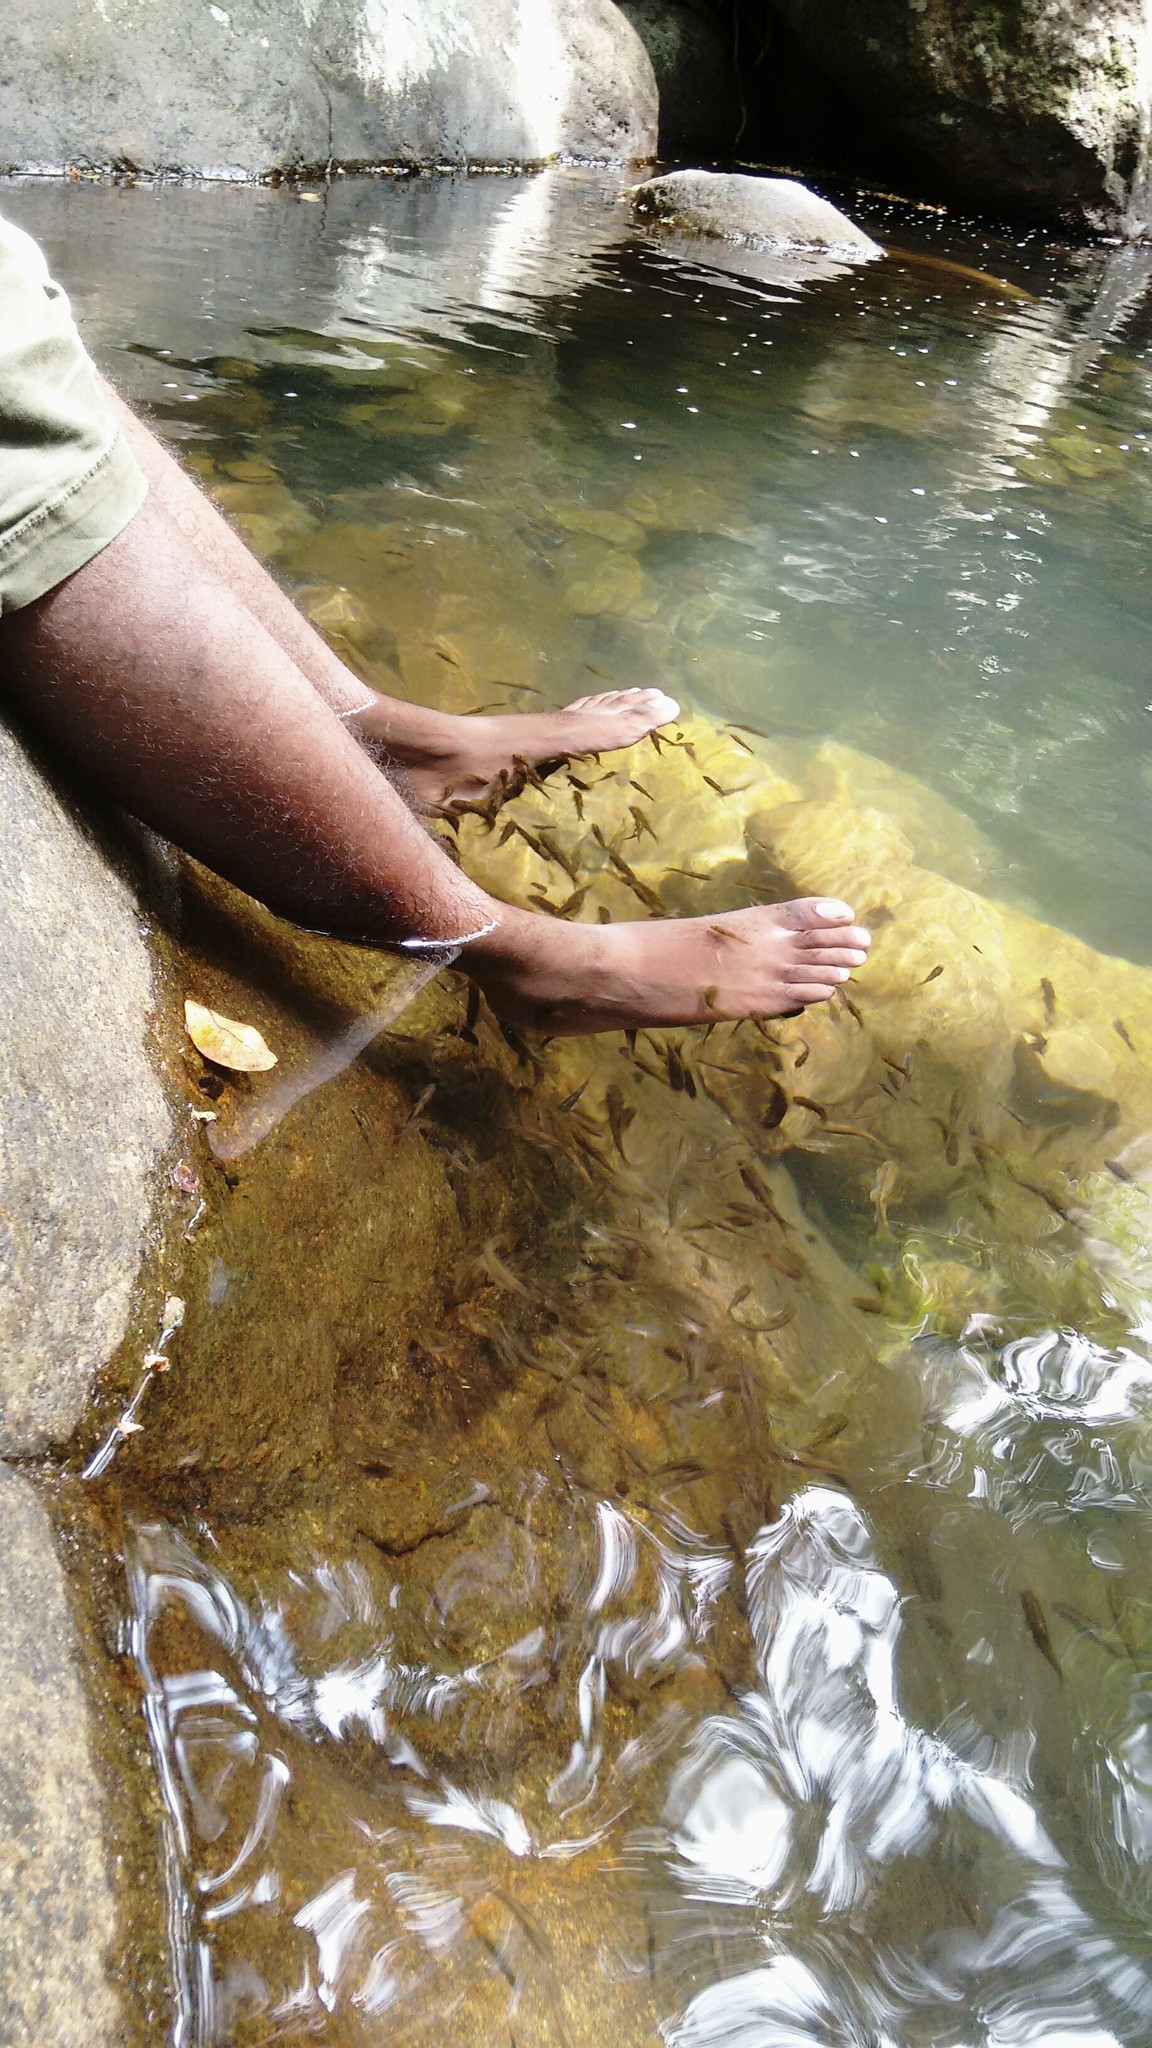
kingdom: Animalia
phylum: Chordata
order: Cypriniformes
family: Cyprinidae
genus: Horalabiosa
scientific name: Horalabiosa joshuai
